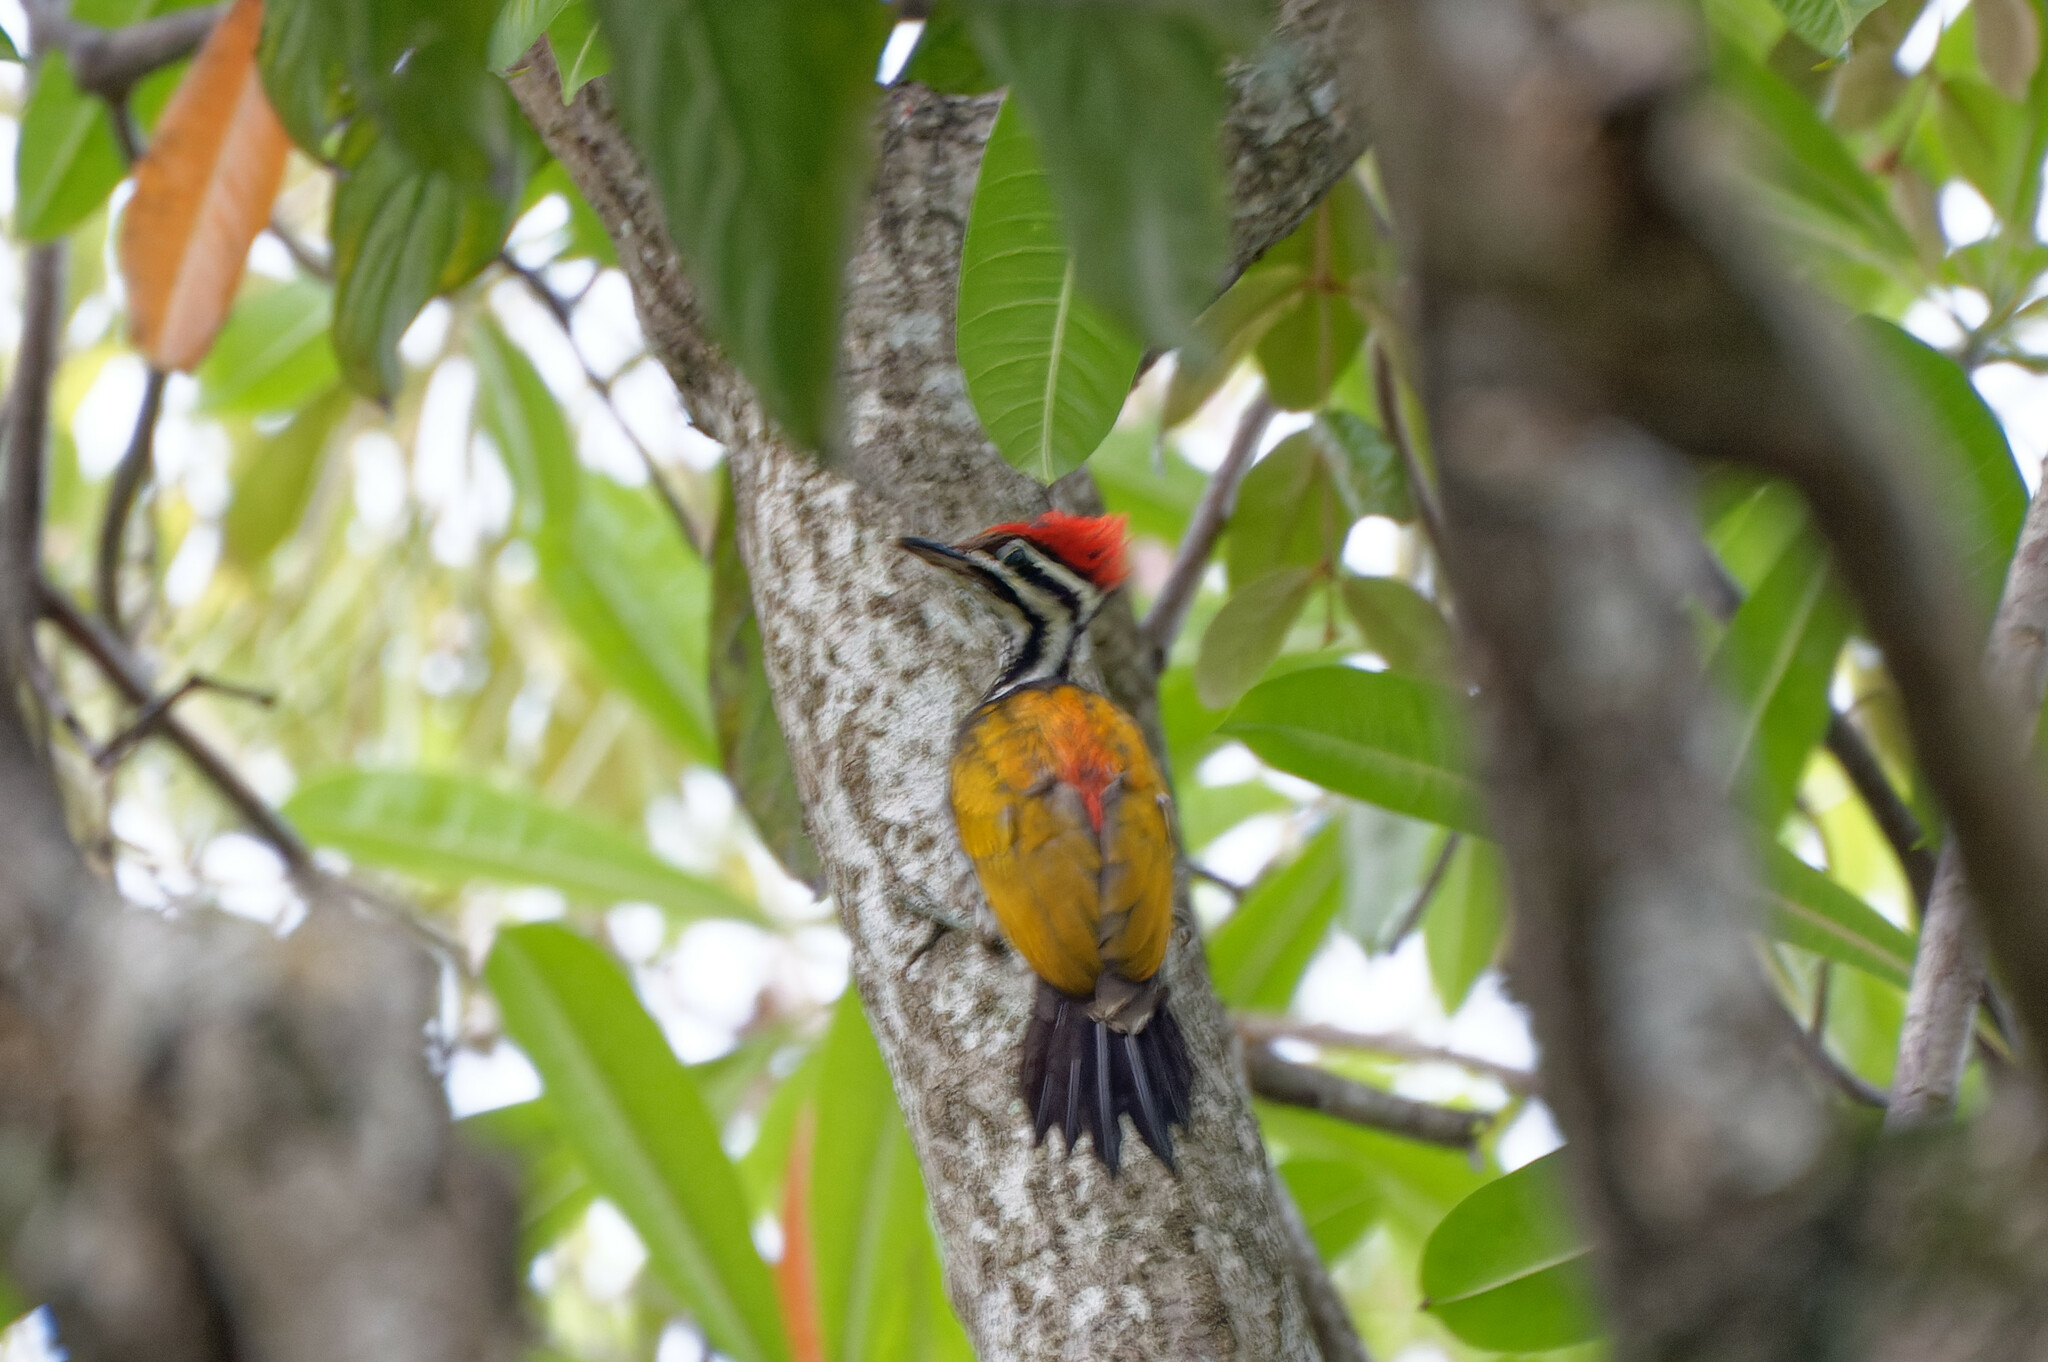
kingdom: Animalia
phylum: Chordata
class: Aves
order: Piciformes
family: Picidae
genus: Dinopium
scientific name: Dinopium javanense
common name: Common flameback
